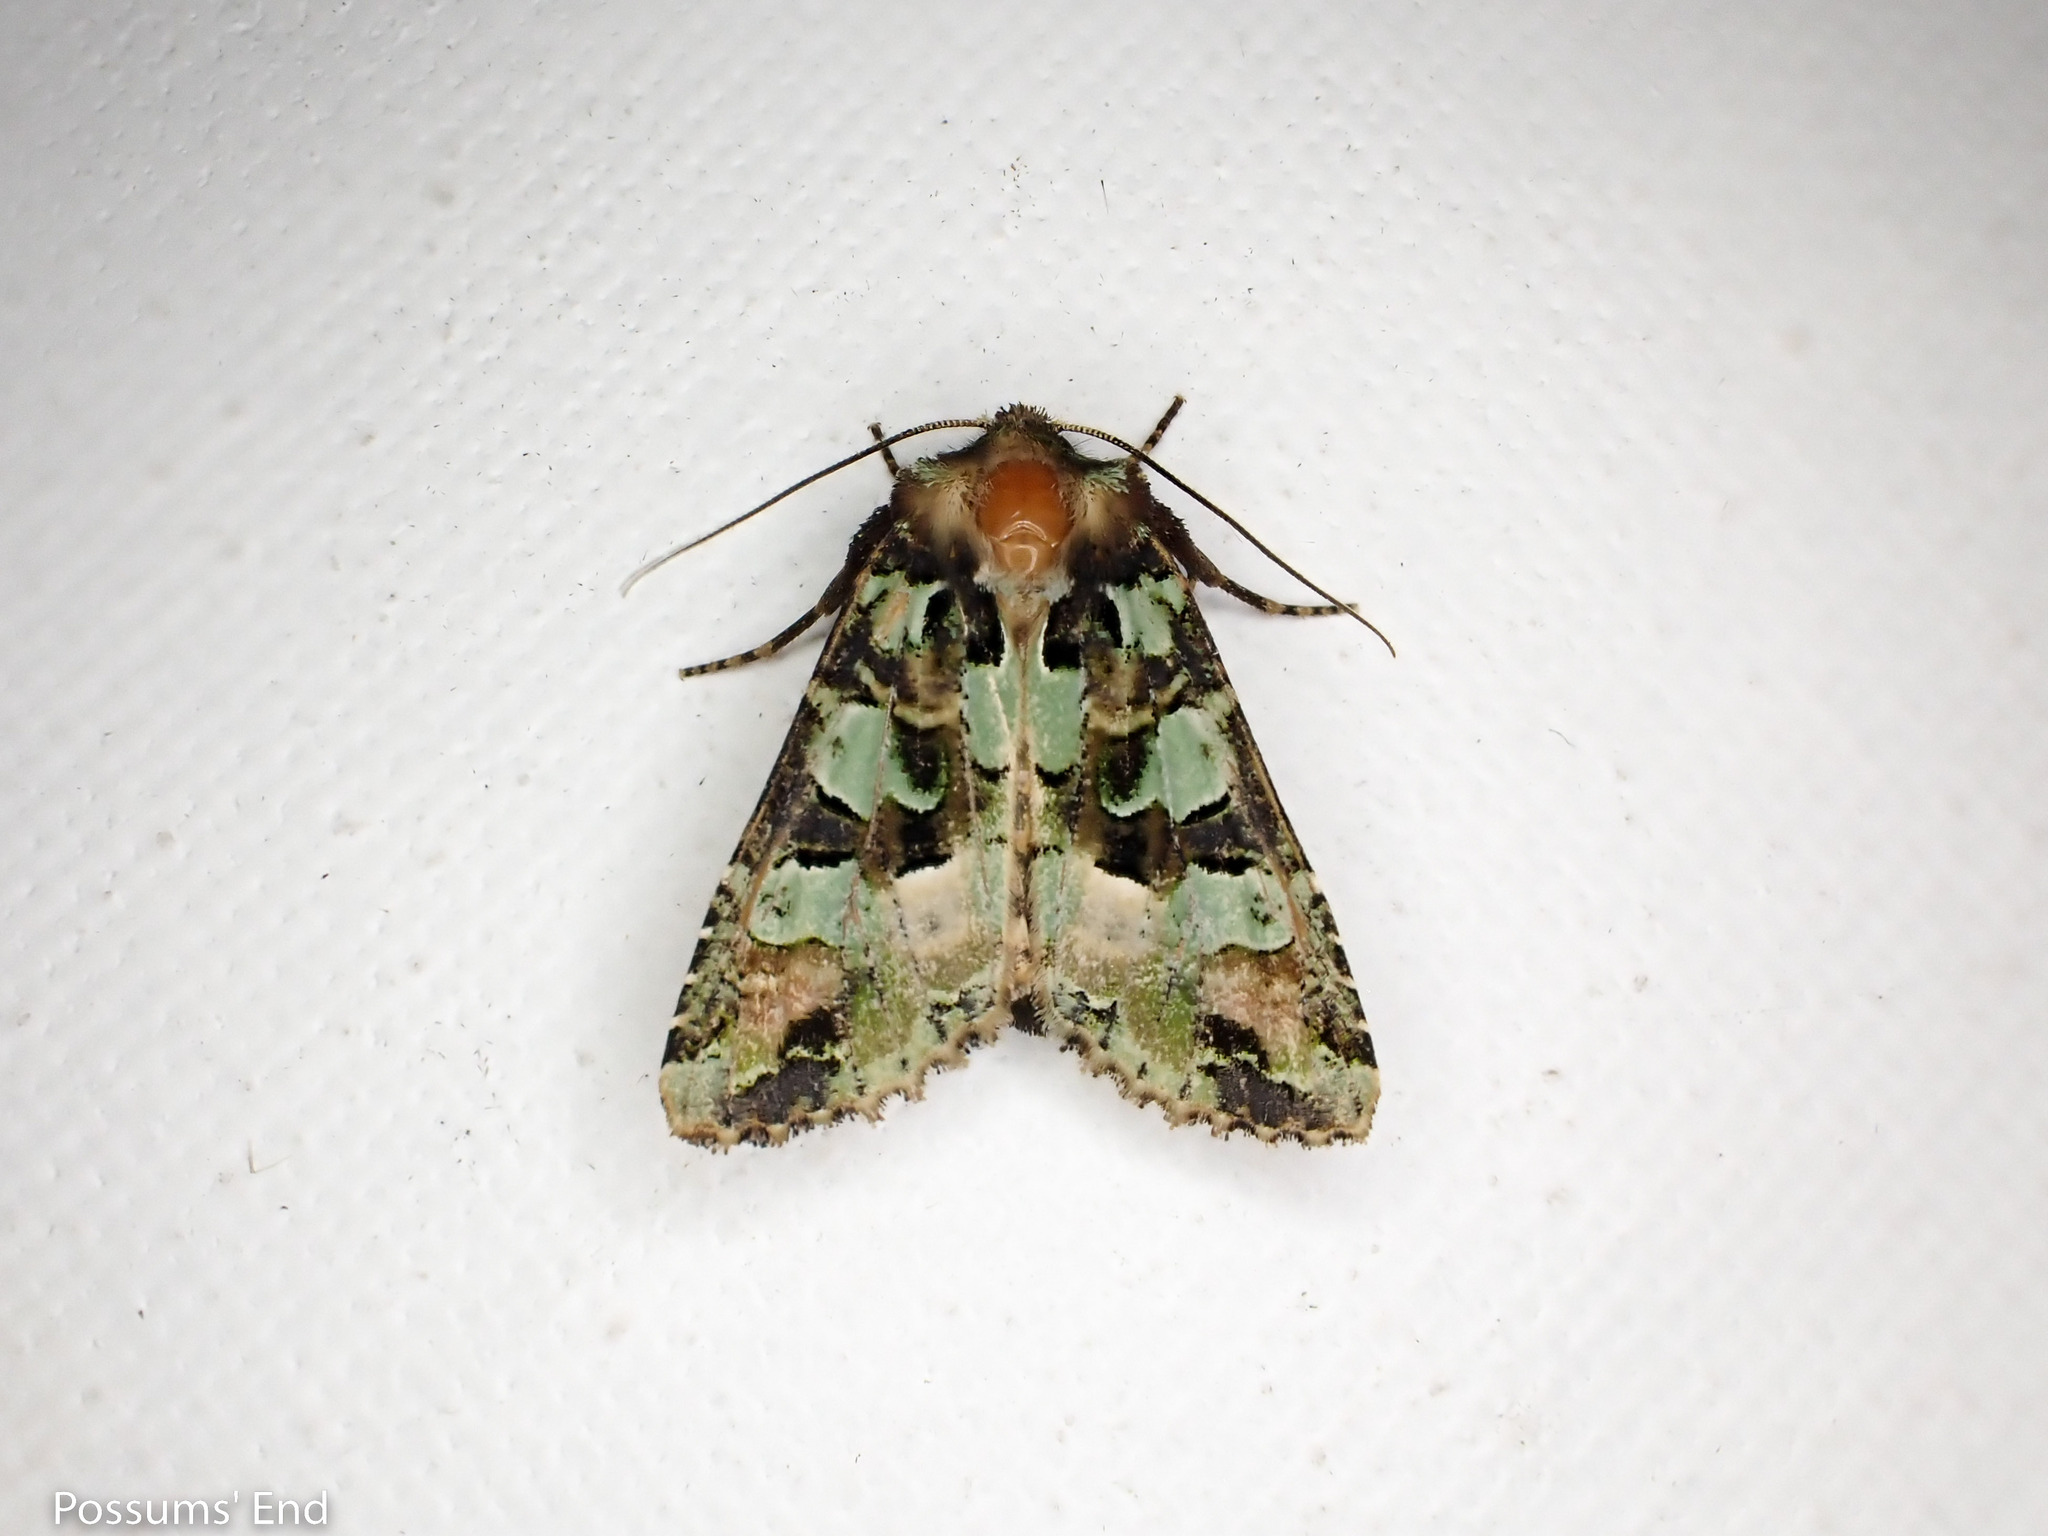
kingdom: Animalia
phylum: Arthropoda
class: Insecta
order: Lepidoptera
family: Noctuidae
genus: Meterana
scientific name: Meterana pauca
